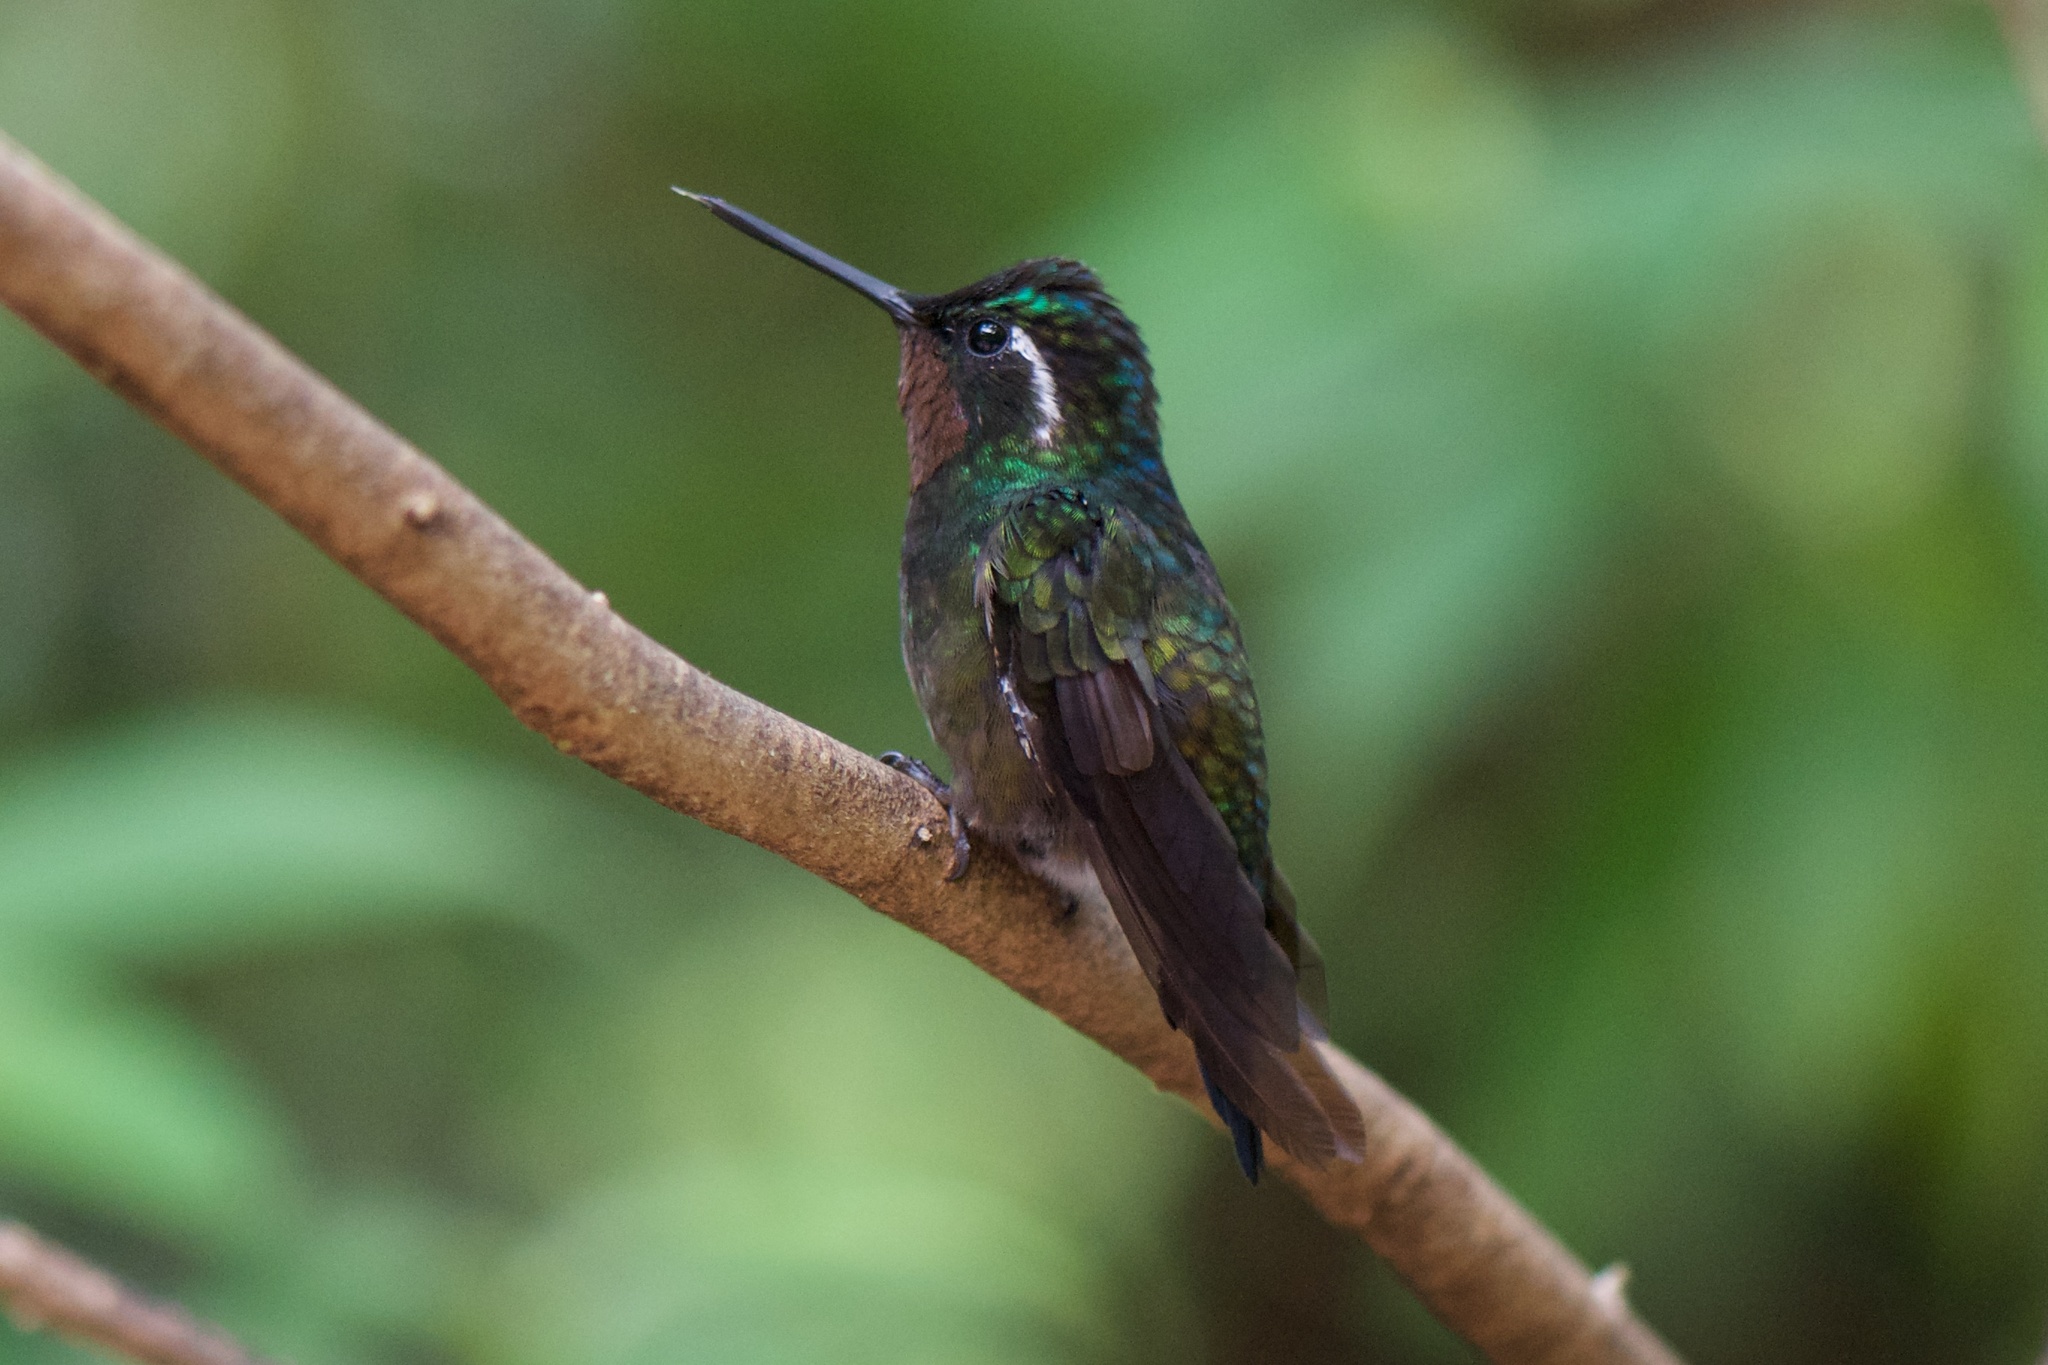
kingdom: Animalia
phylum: Chordata
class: Aves
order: Apodiformes
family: Trochilidae
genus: Lampornis
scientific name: Lampornis calolaemus
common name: Purple-throated mountain-gem
